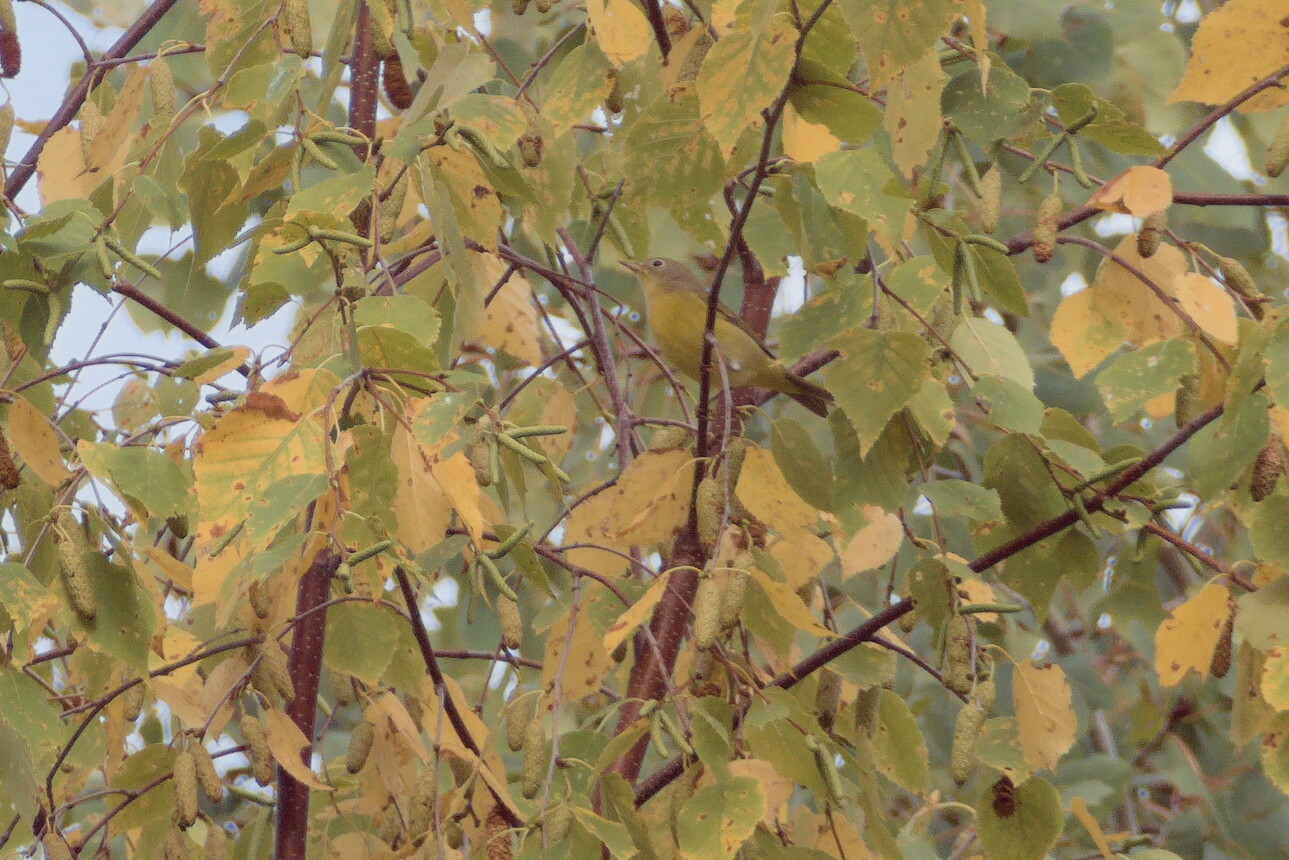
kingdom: Animalia
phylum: Chordata
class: Aves
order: Passeriformes
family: Parulidae
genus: Leiothlypis
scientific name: Leiothlypis ruficapilla
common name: Nashville warbler
